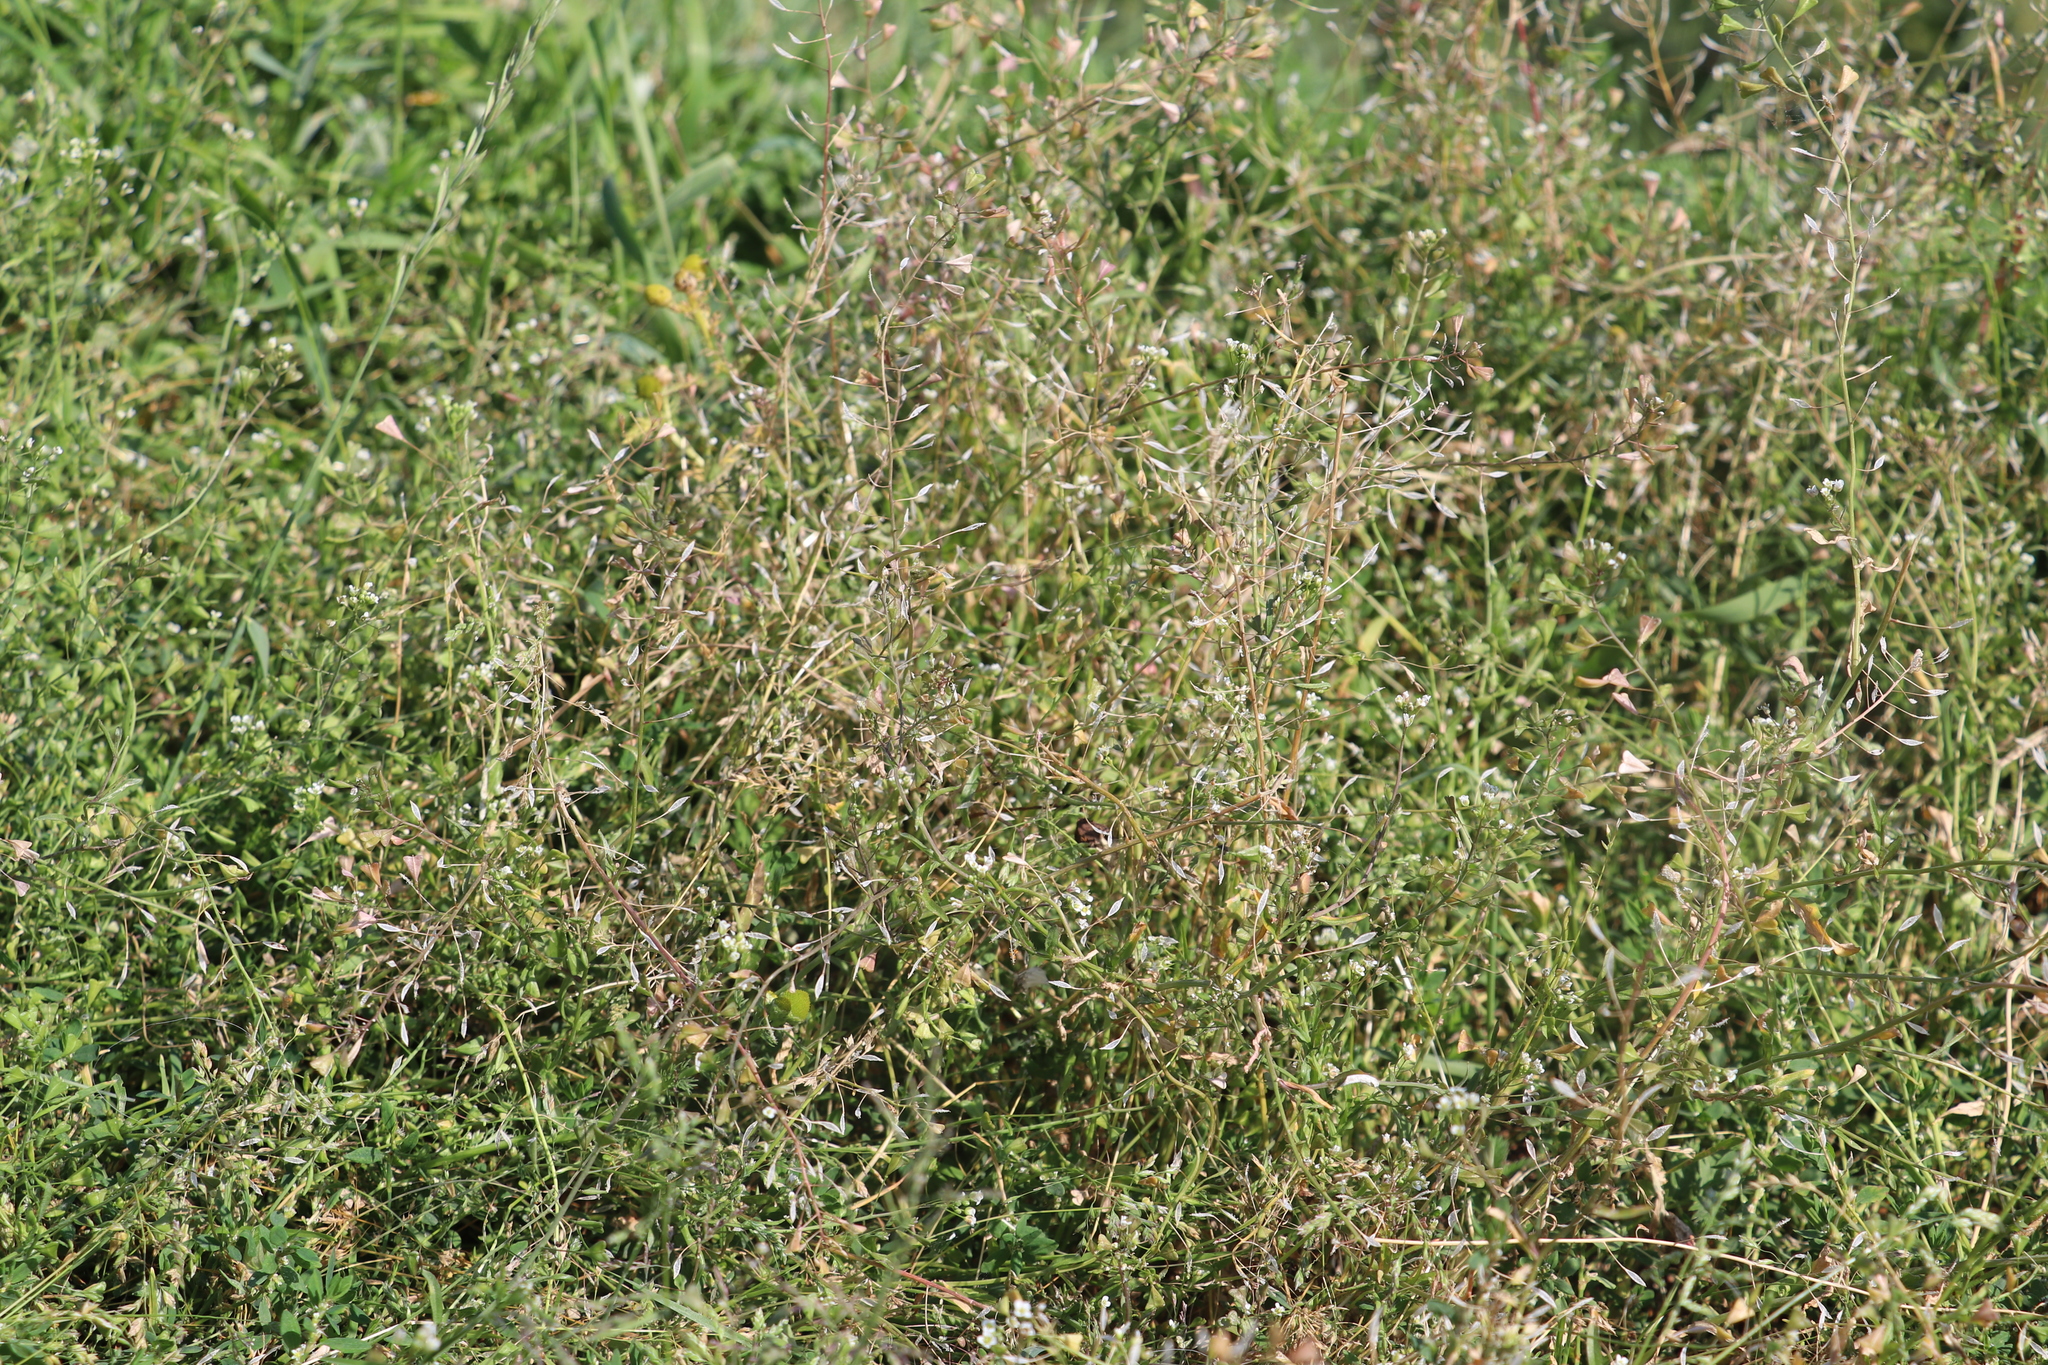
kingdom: Plantae
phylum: Tracheophyta
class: Magnoliopsida
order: Brassicales
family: Brassicaceae
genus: Capsella
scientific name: Capsella bursa-pastoris
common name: Shepherd's purse
